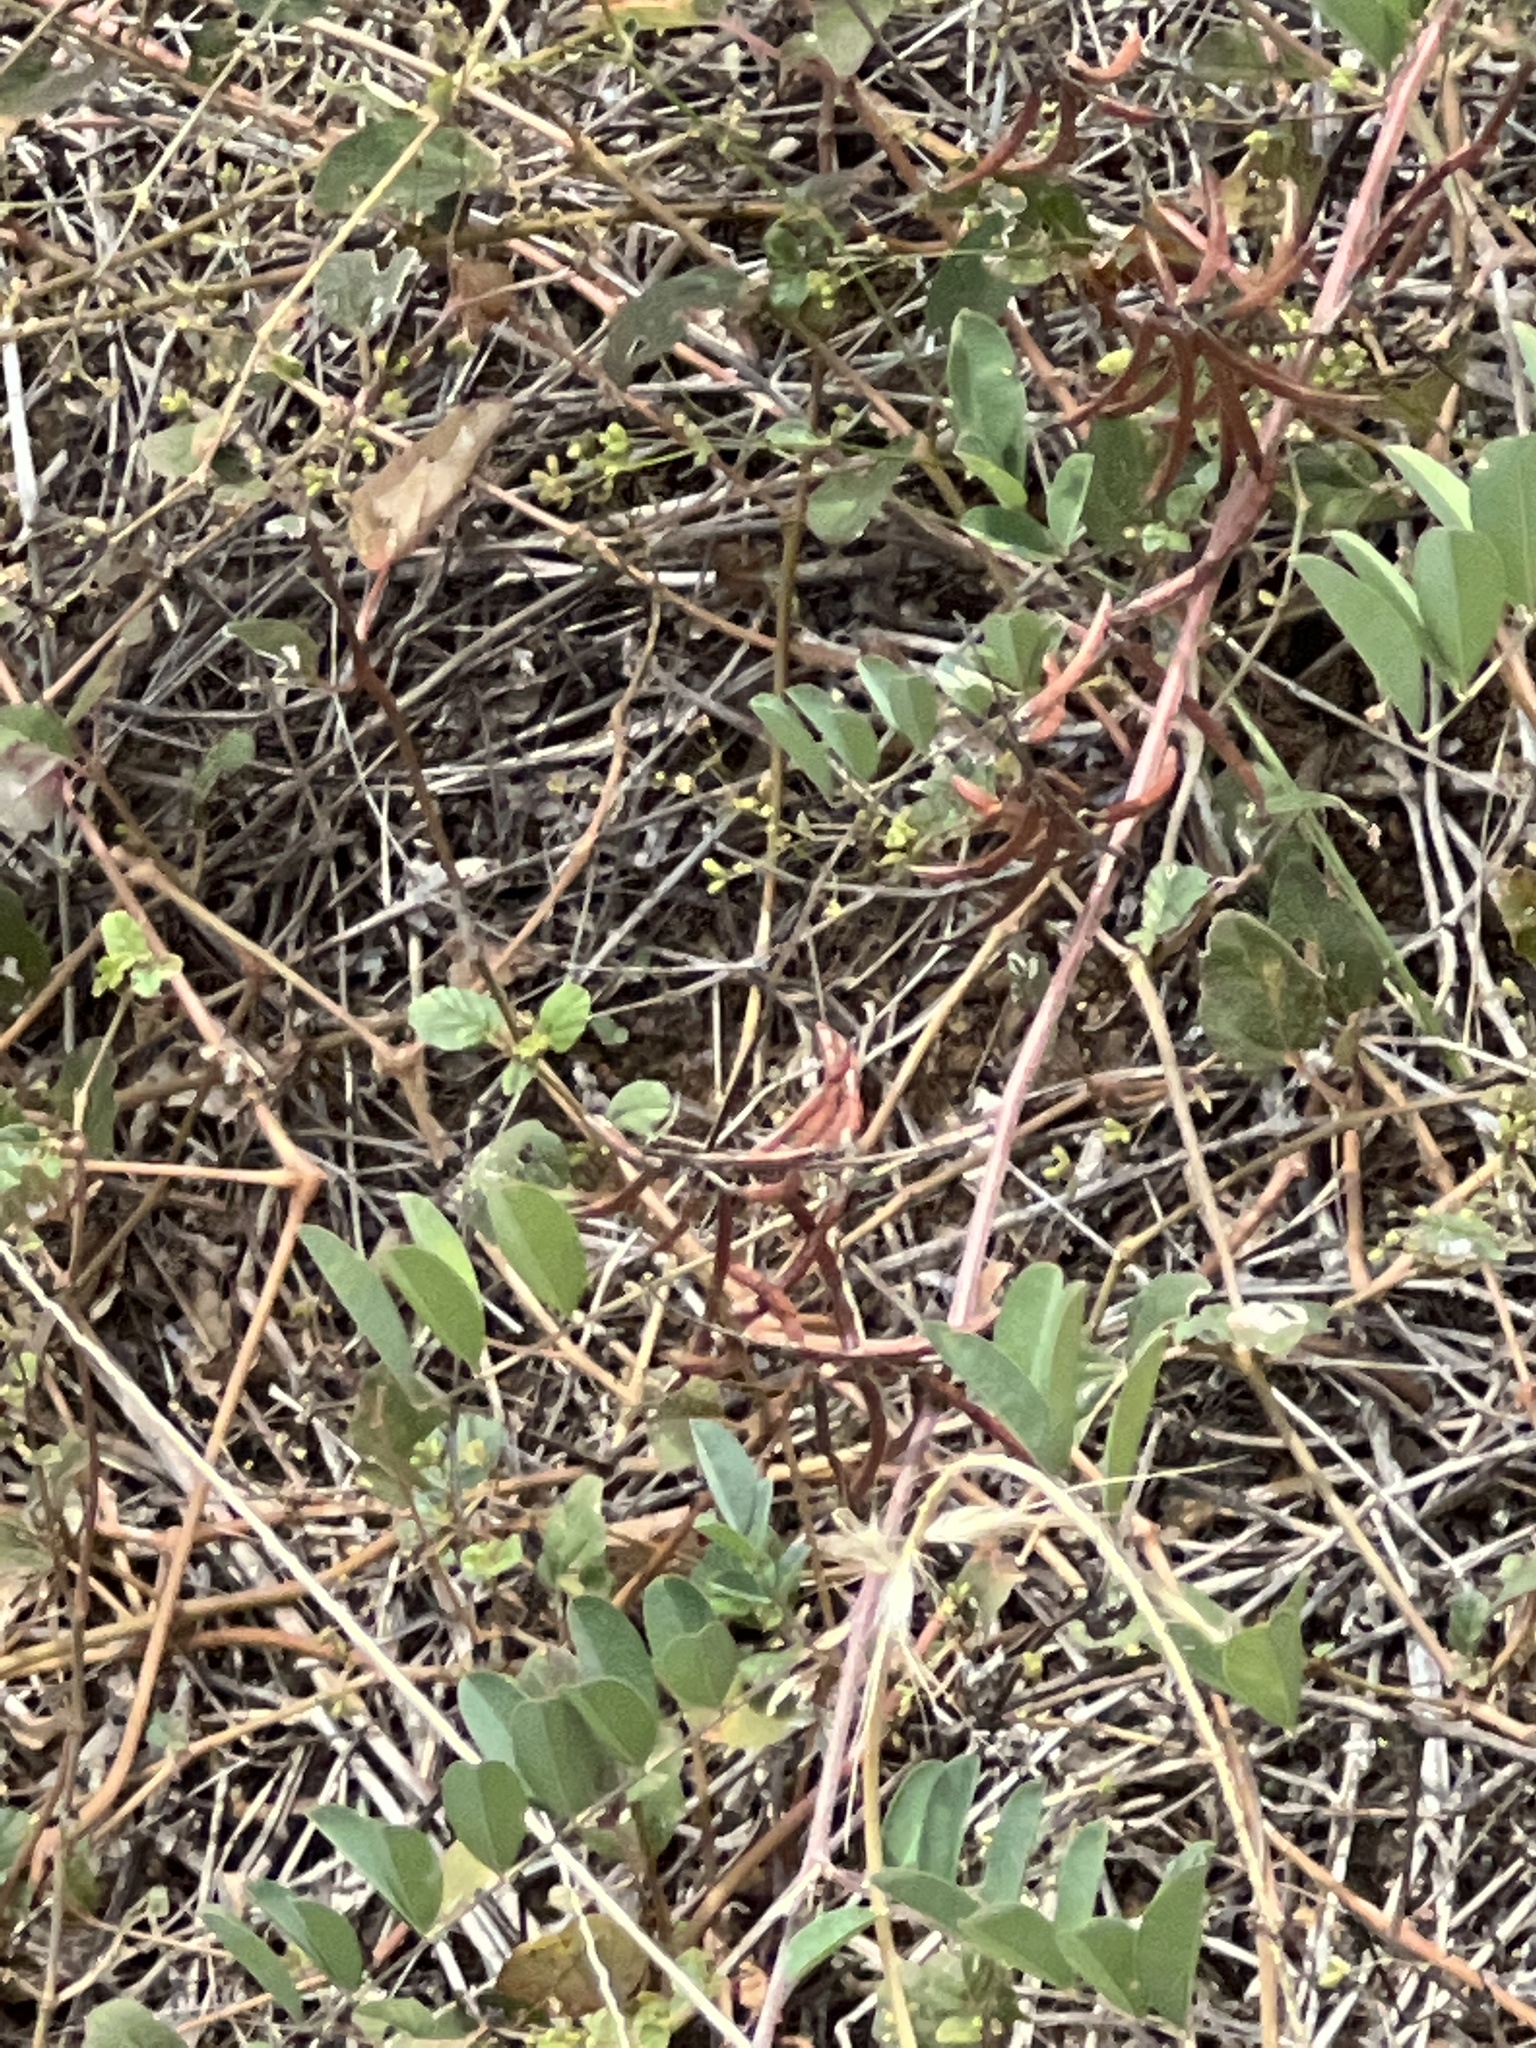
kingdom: Plantae
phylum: Tracheophyta
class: Magnoliopsida
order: Fabales
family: Fabaceae
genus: Indigofera
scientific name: Indigofera suffruticosa
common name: Anil de pasto
